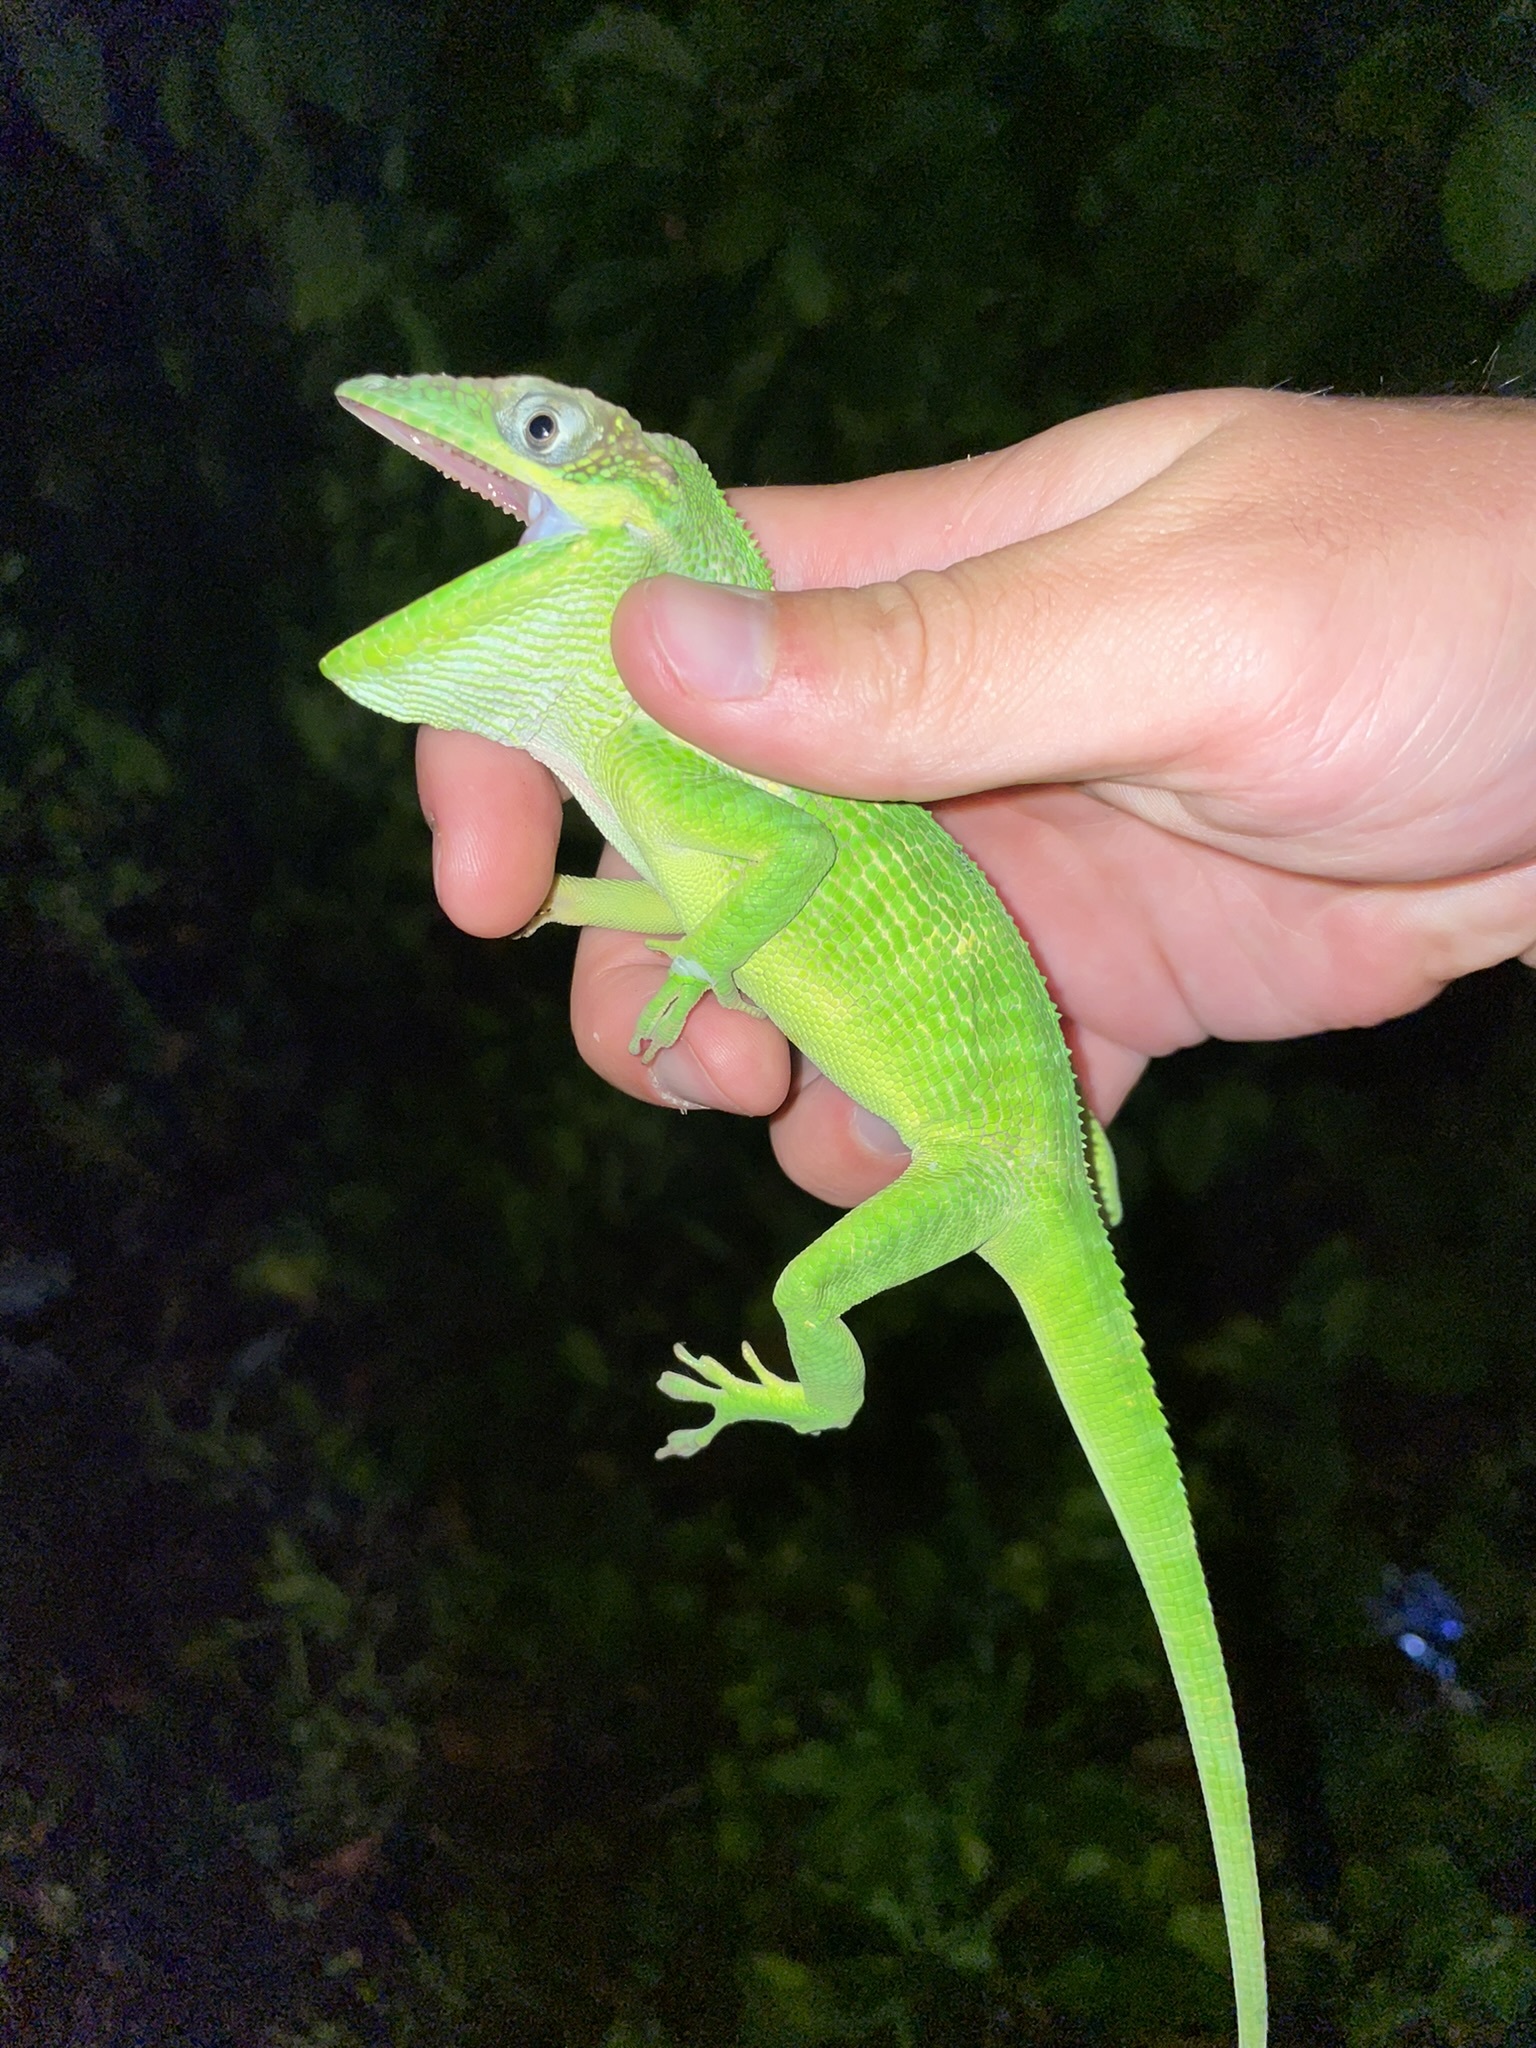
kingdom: Animalia
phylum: Chordata
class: Squamata
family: Dactyloidae
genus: Anolis
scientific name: Anolis equestris
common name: Knight anole
